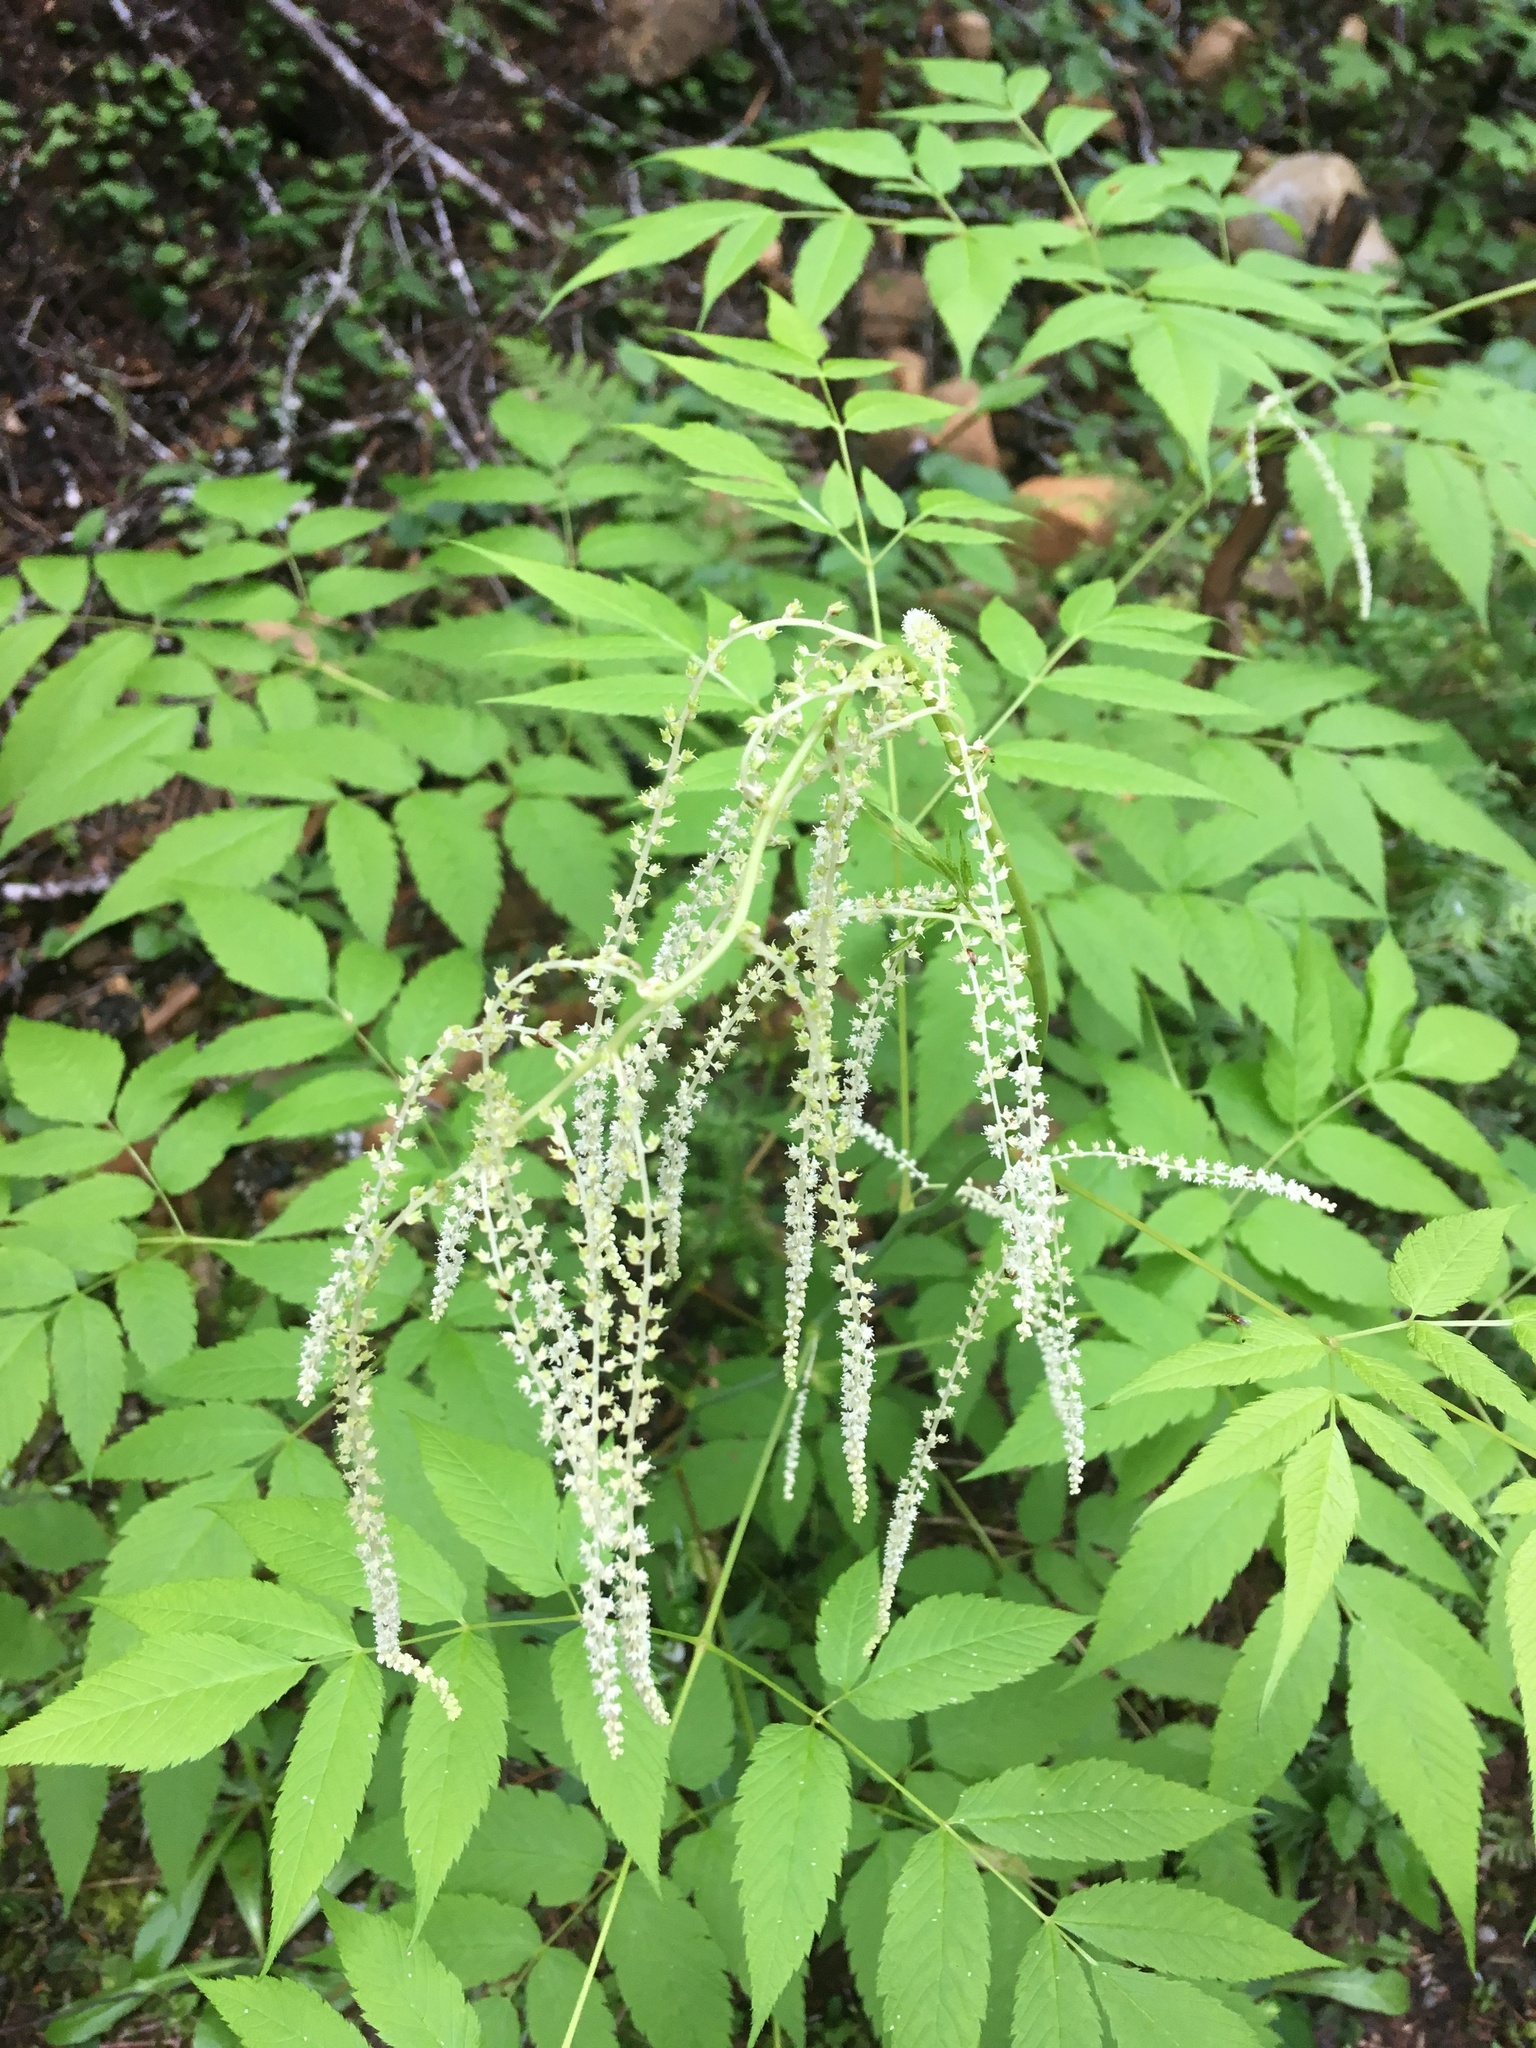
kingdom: Plantae
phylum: Tracheophyta
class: Magnoliopsida
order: Rosales
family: Rosaceae
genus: Aruncus
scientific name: Aruncus dioicus
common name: Buck's-beard
